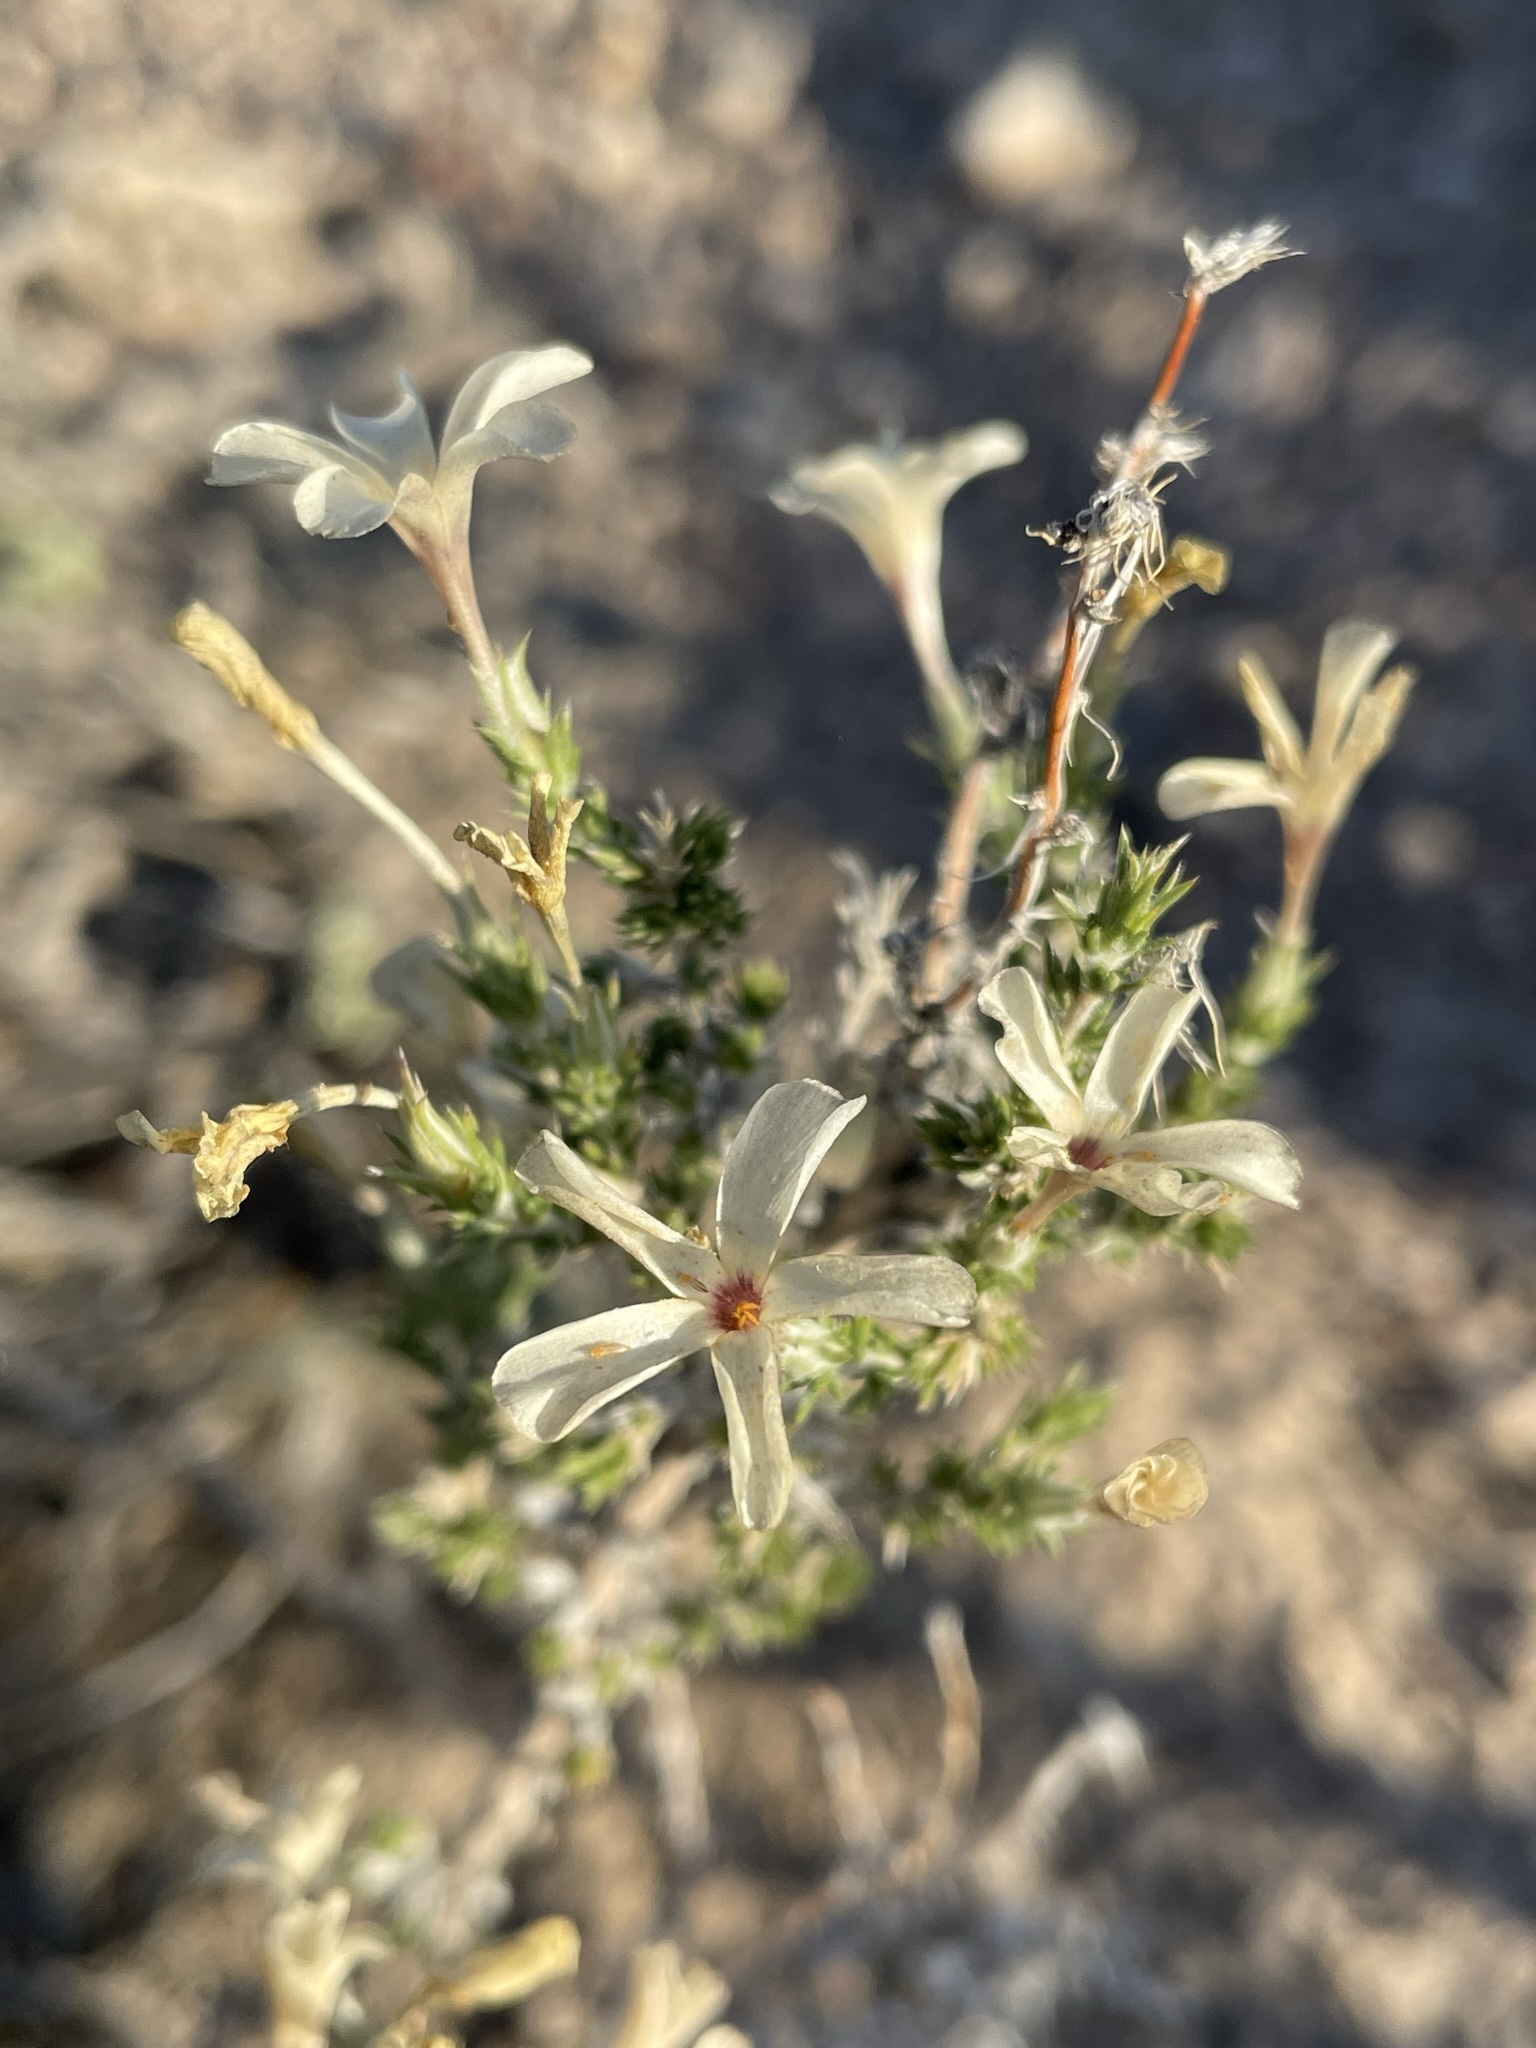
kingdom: Plantae
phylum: Tracheophyta
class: Magnoliopsida
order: Ericales
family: Polemoniaceae
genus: Linanthus
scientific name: Linanthus pungens
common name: Granite prickly phlox
